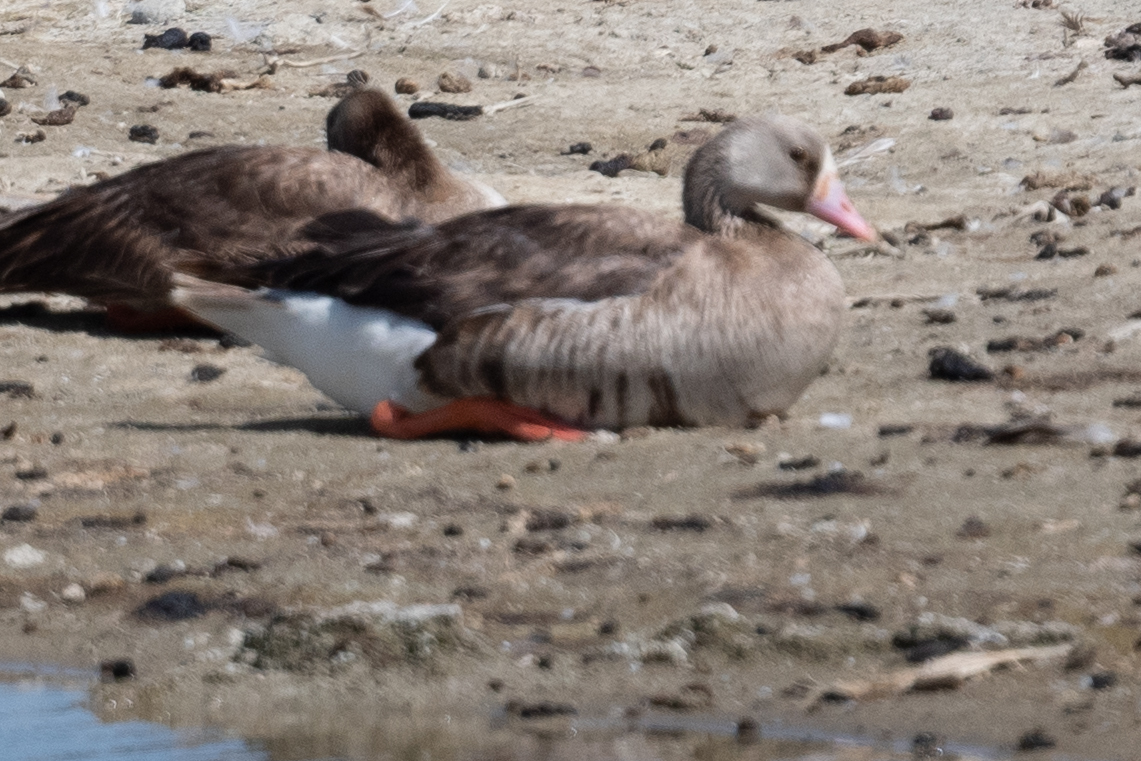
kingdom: Animalia
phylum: Chordata
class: Aves
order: Anseriformes
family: Anatidae
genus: Anser
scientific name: Anser albifrons
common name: Greater white-fronted goose
